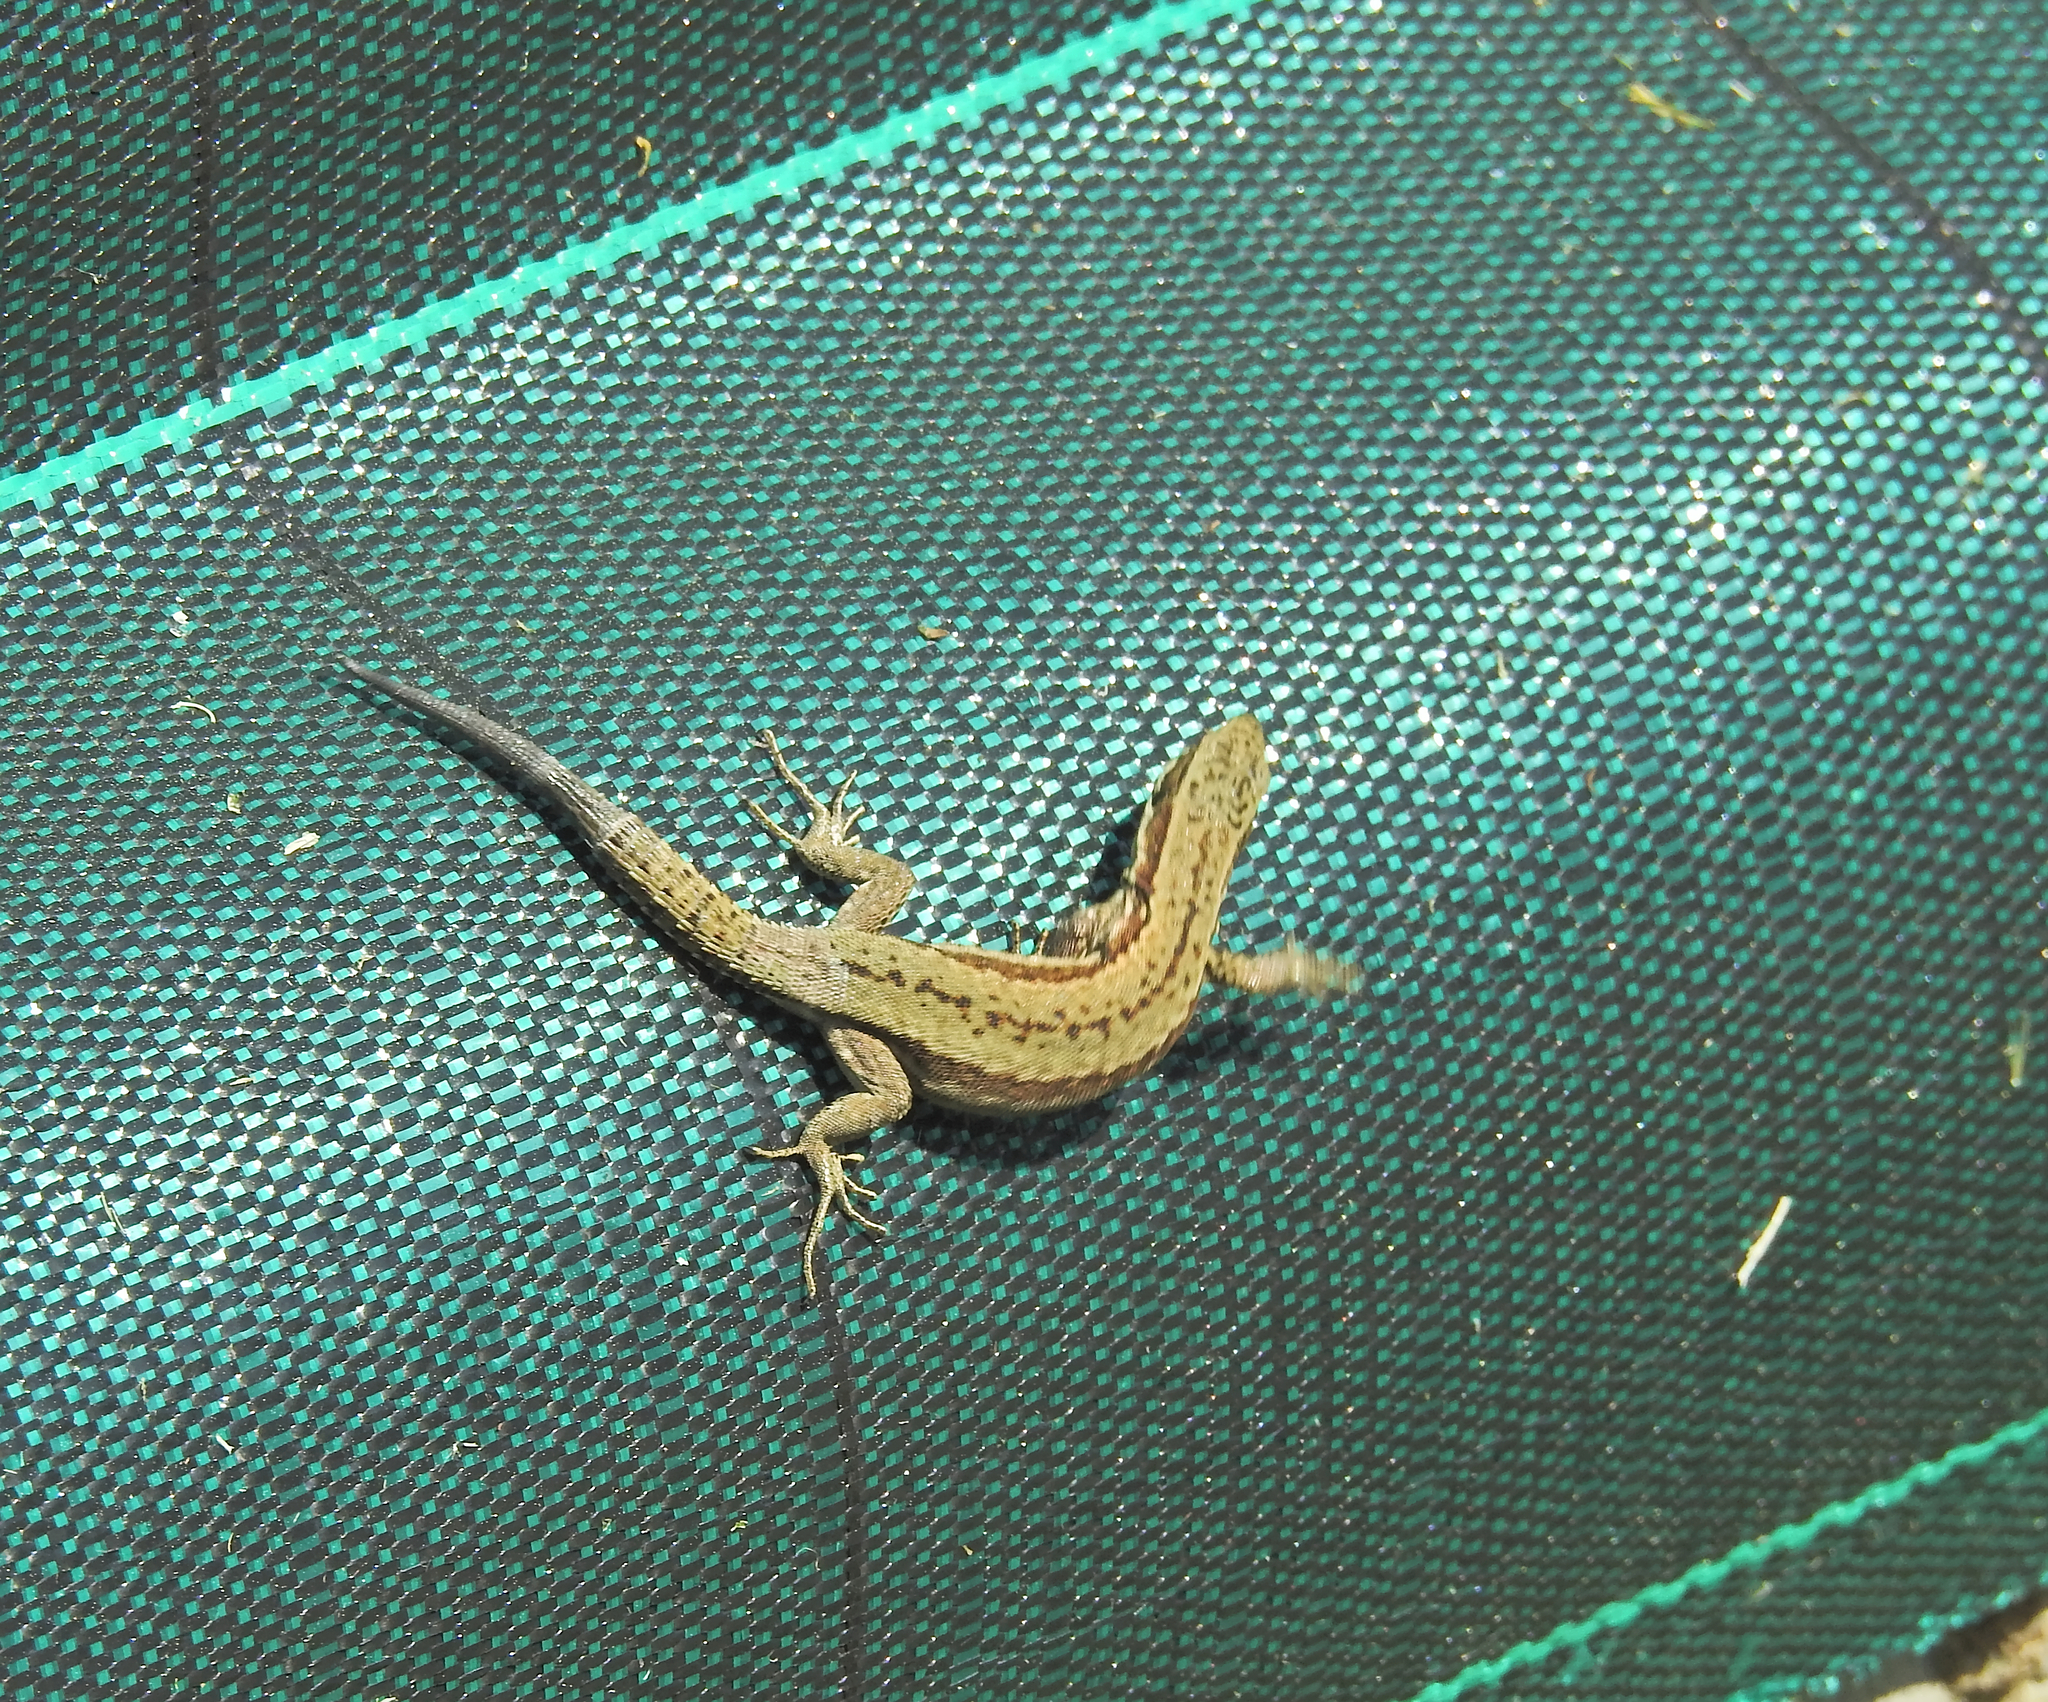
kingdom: Animalia
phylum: Chordata
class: Squamata
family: Lacertidae
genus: Podarcis
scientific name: Podarcis muralis
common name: Common wall lizard
